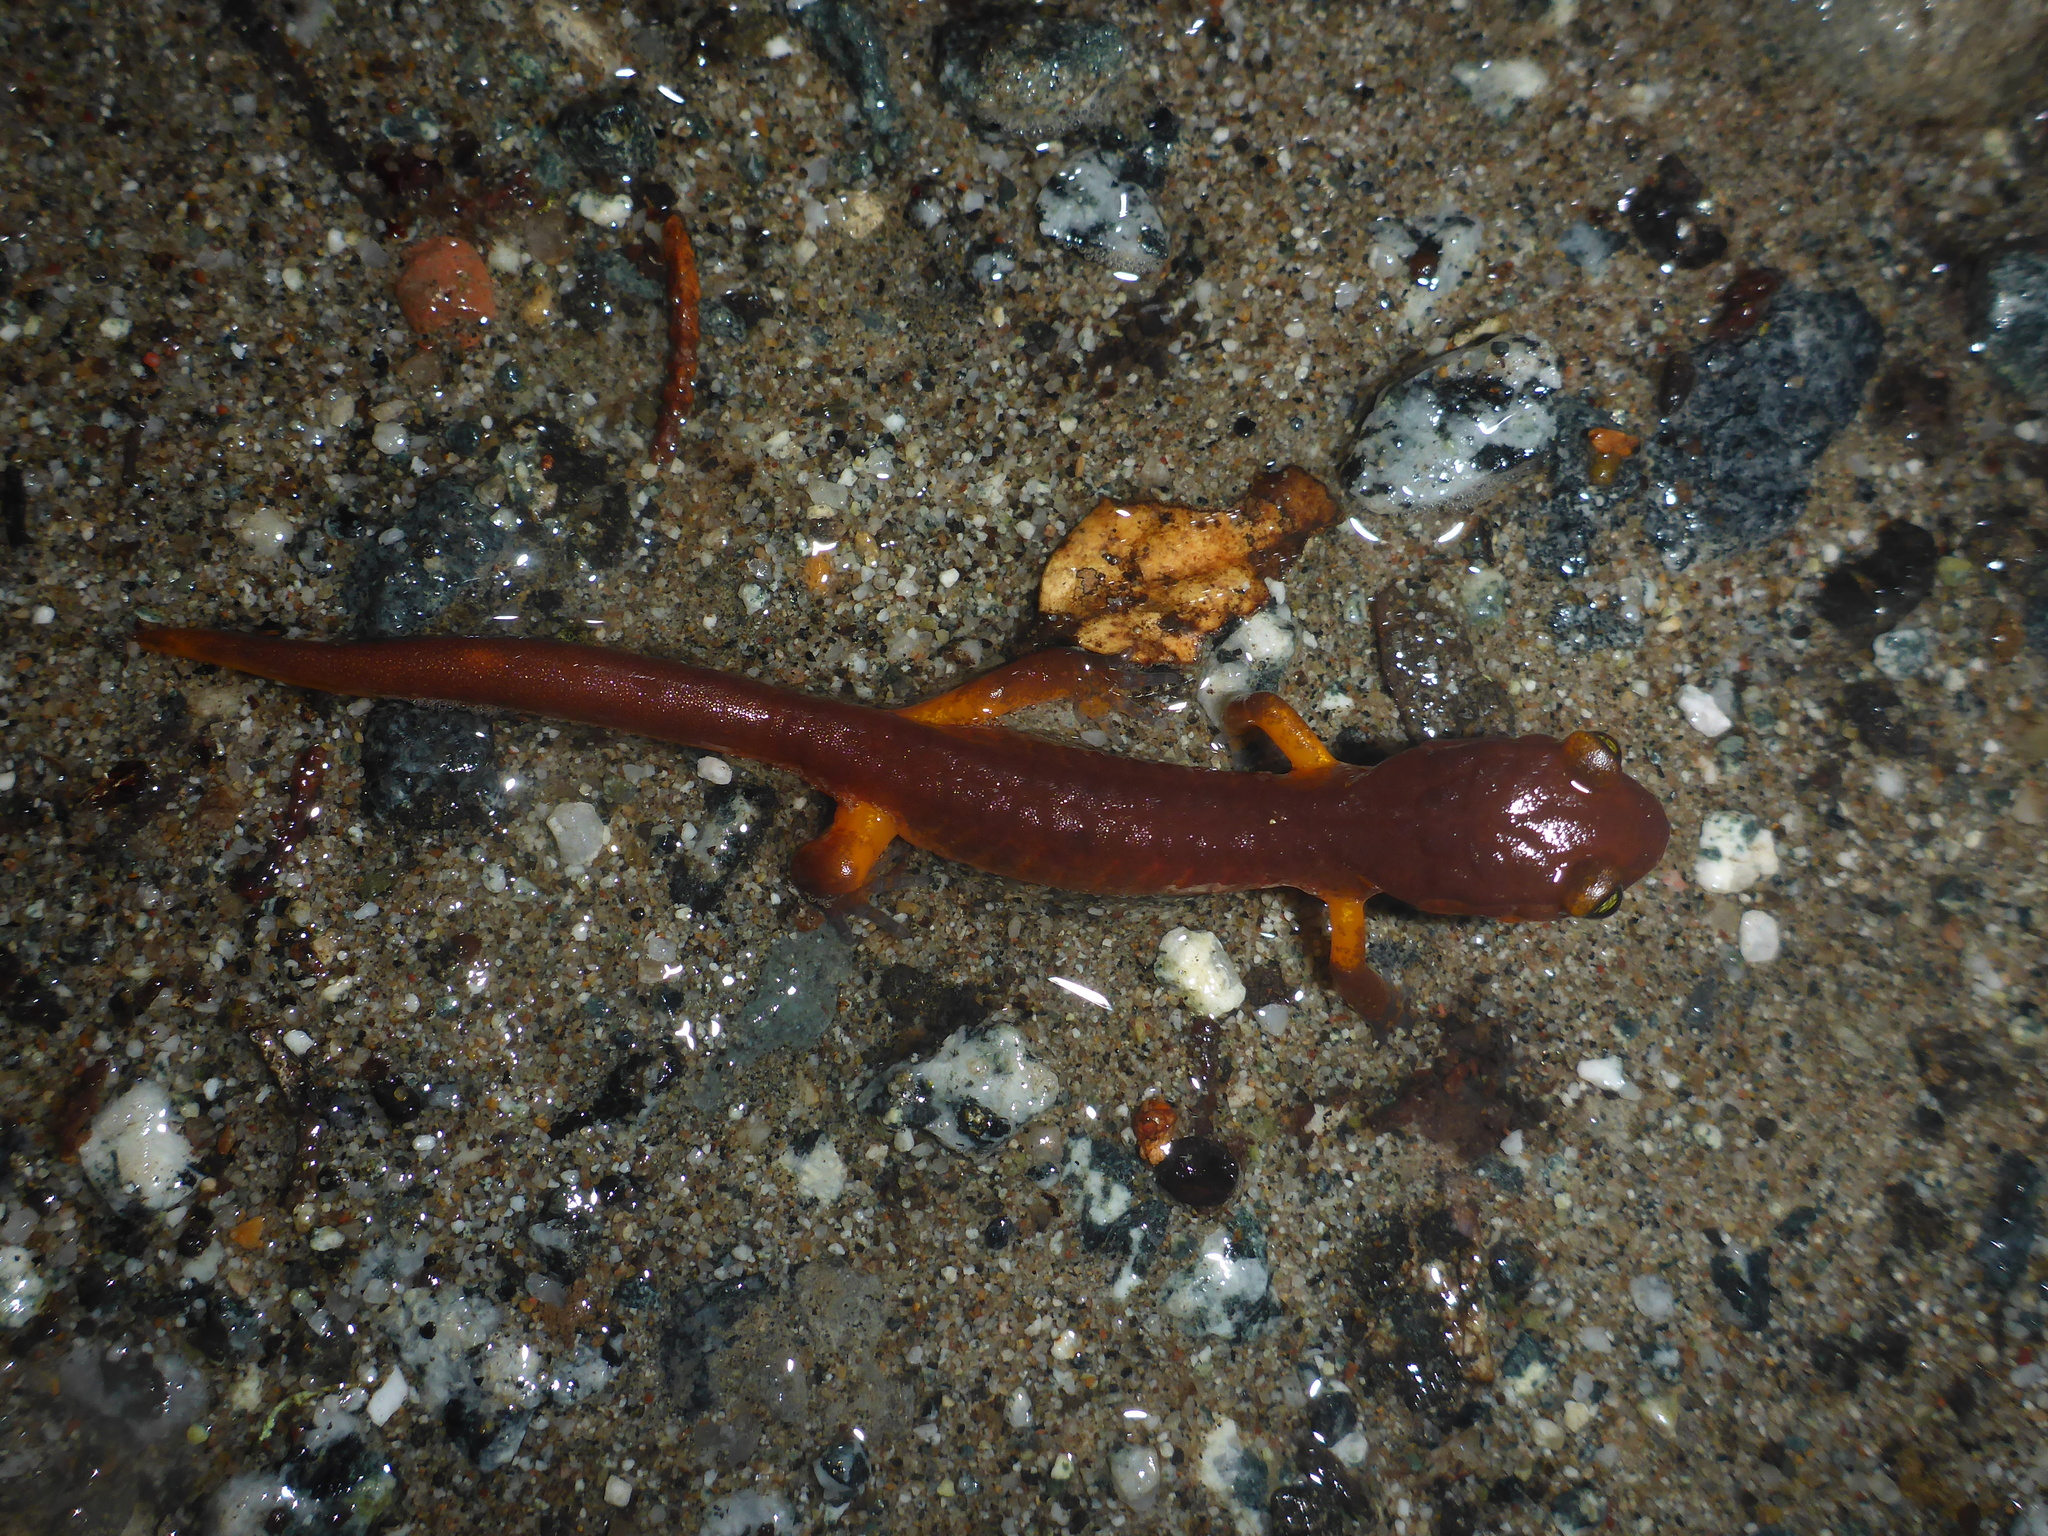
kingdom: Animalia
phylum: Chordata
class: Amphibia
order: Caudata
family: Plethodontidae
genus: Ensatina
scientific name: Ensatina eschscholtzii
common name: Ensatina
